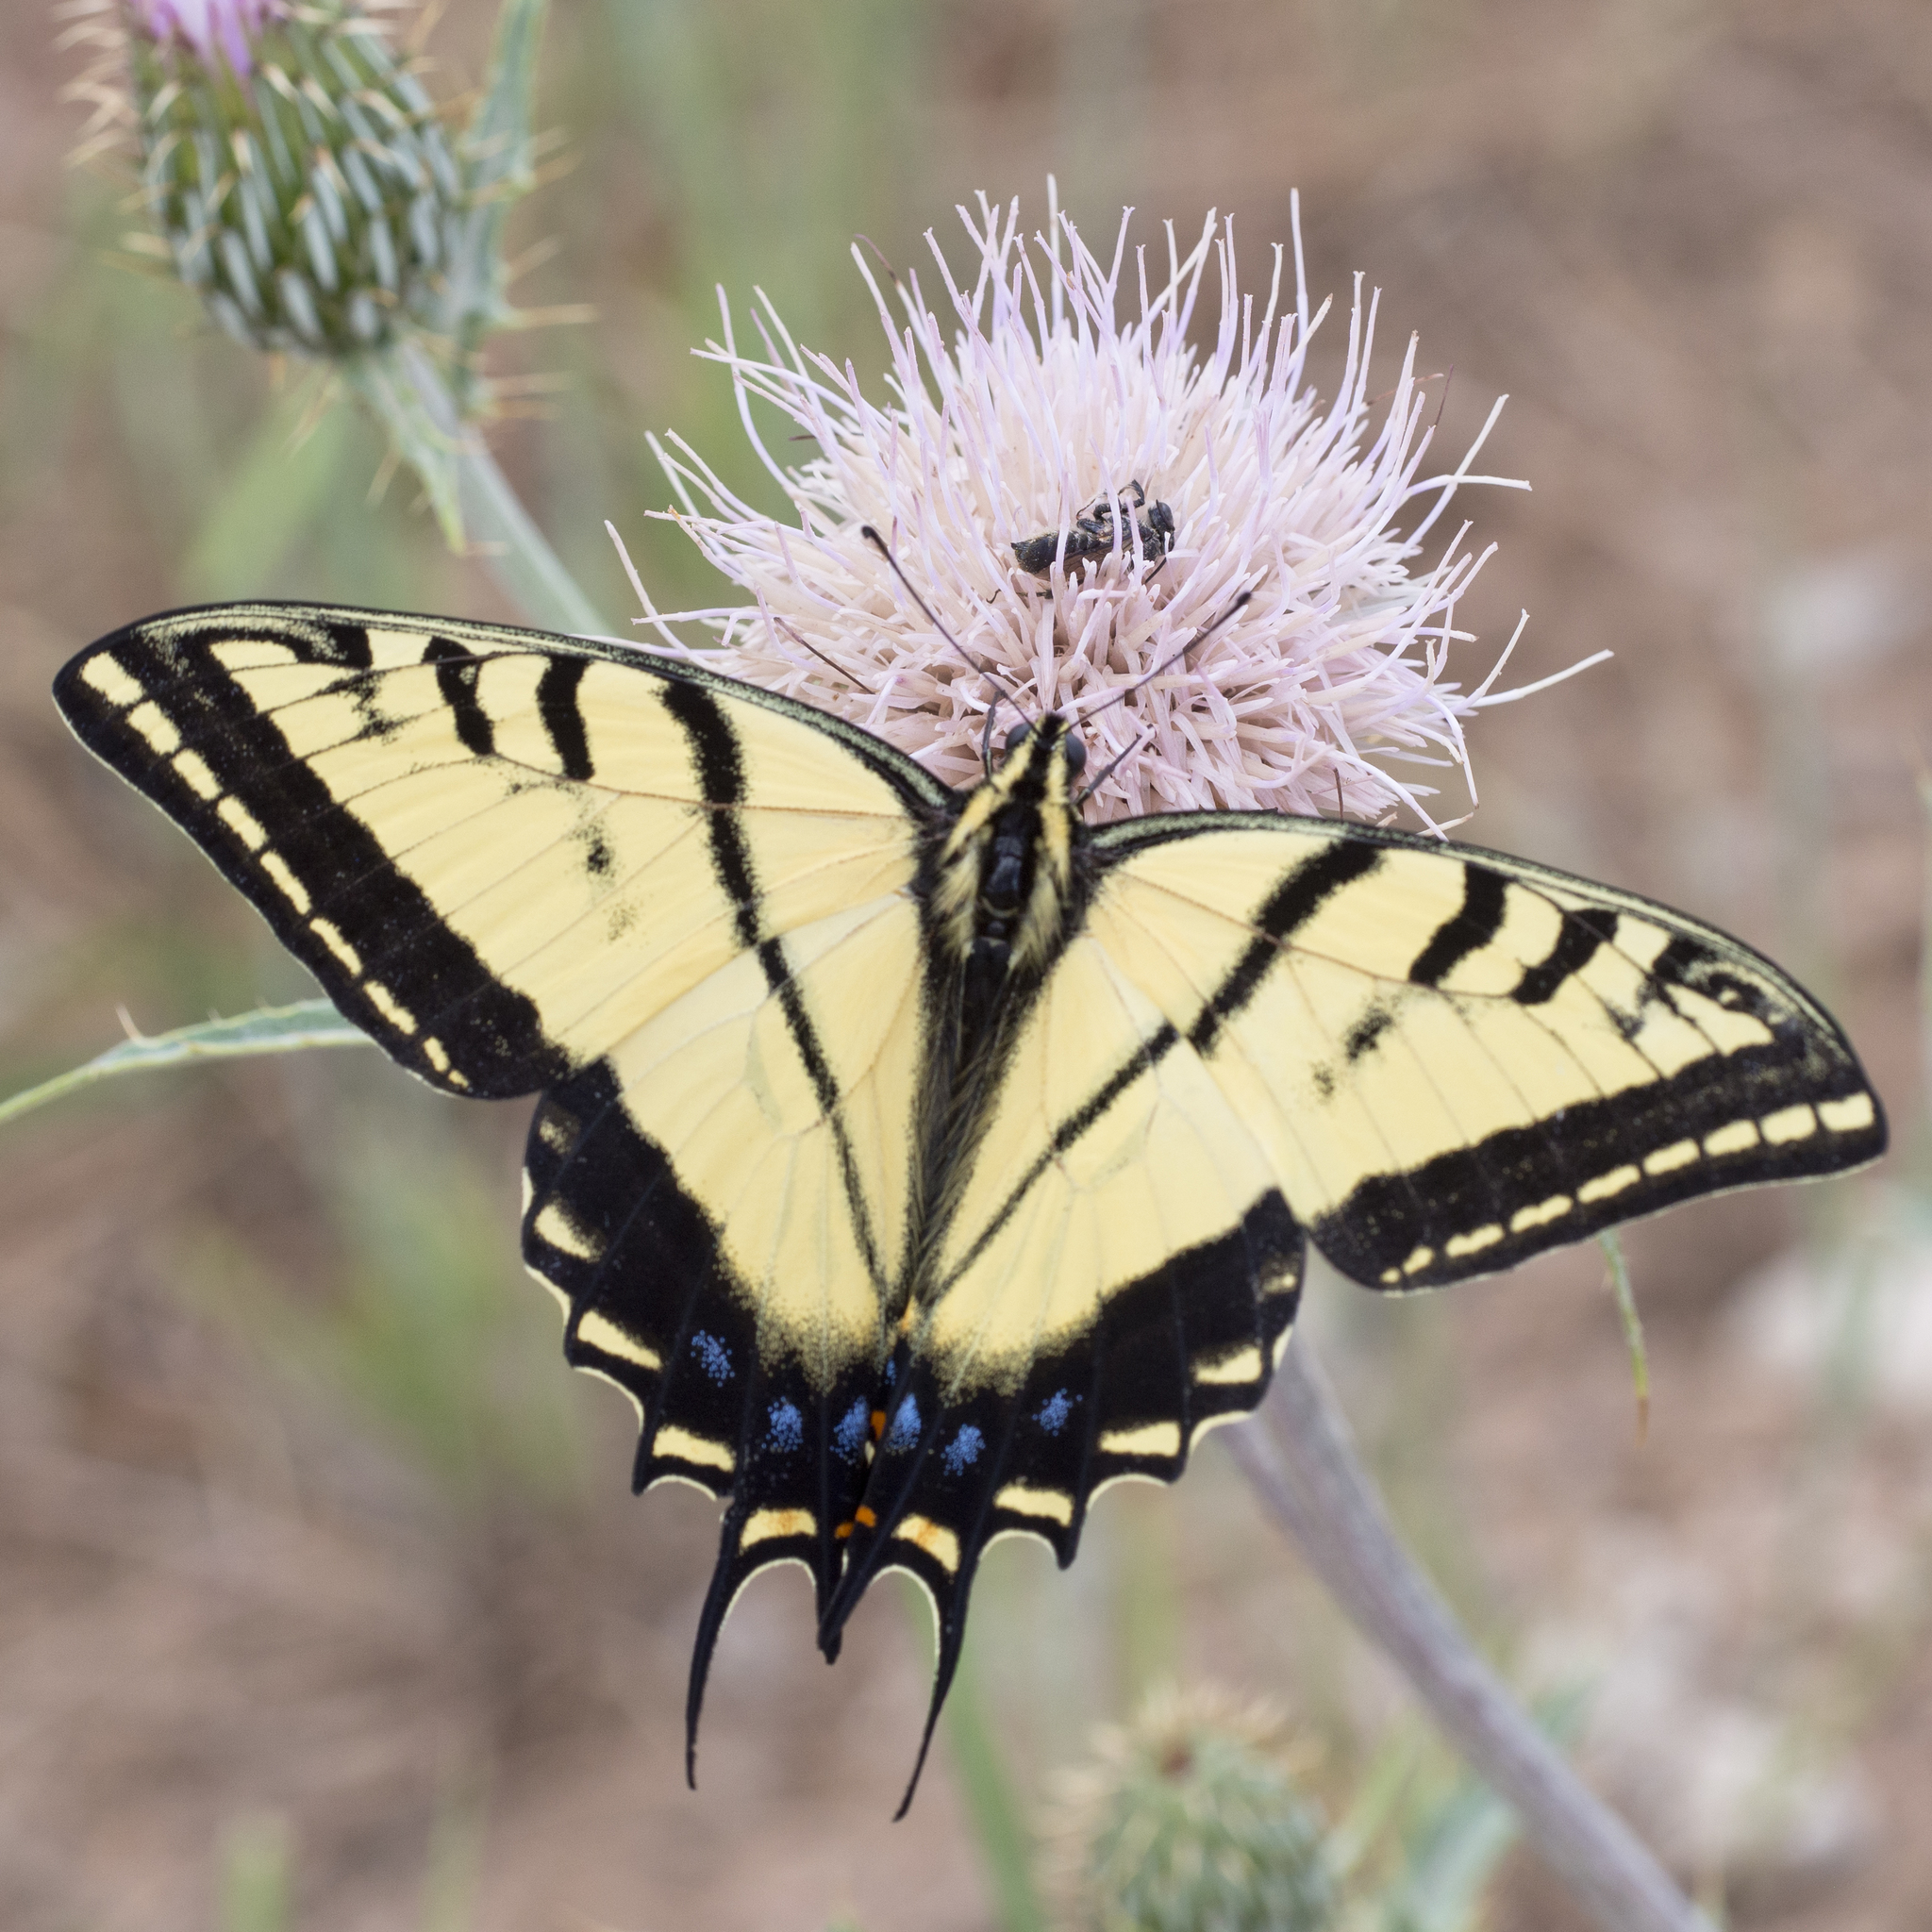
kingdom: Animalia
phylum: Arthropoda
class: Insecta
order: Lepidoptera
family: Papilionidae
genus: Papilio
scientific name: Papilio multicaudata
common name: Two-tailed tiger swallowtail
